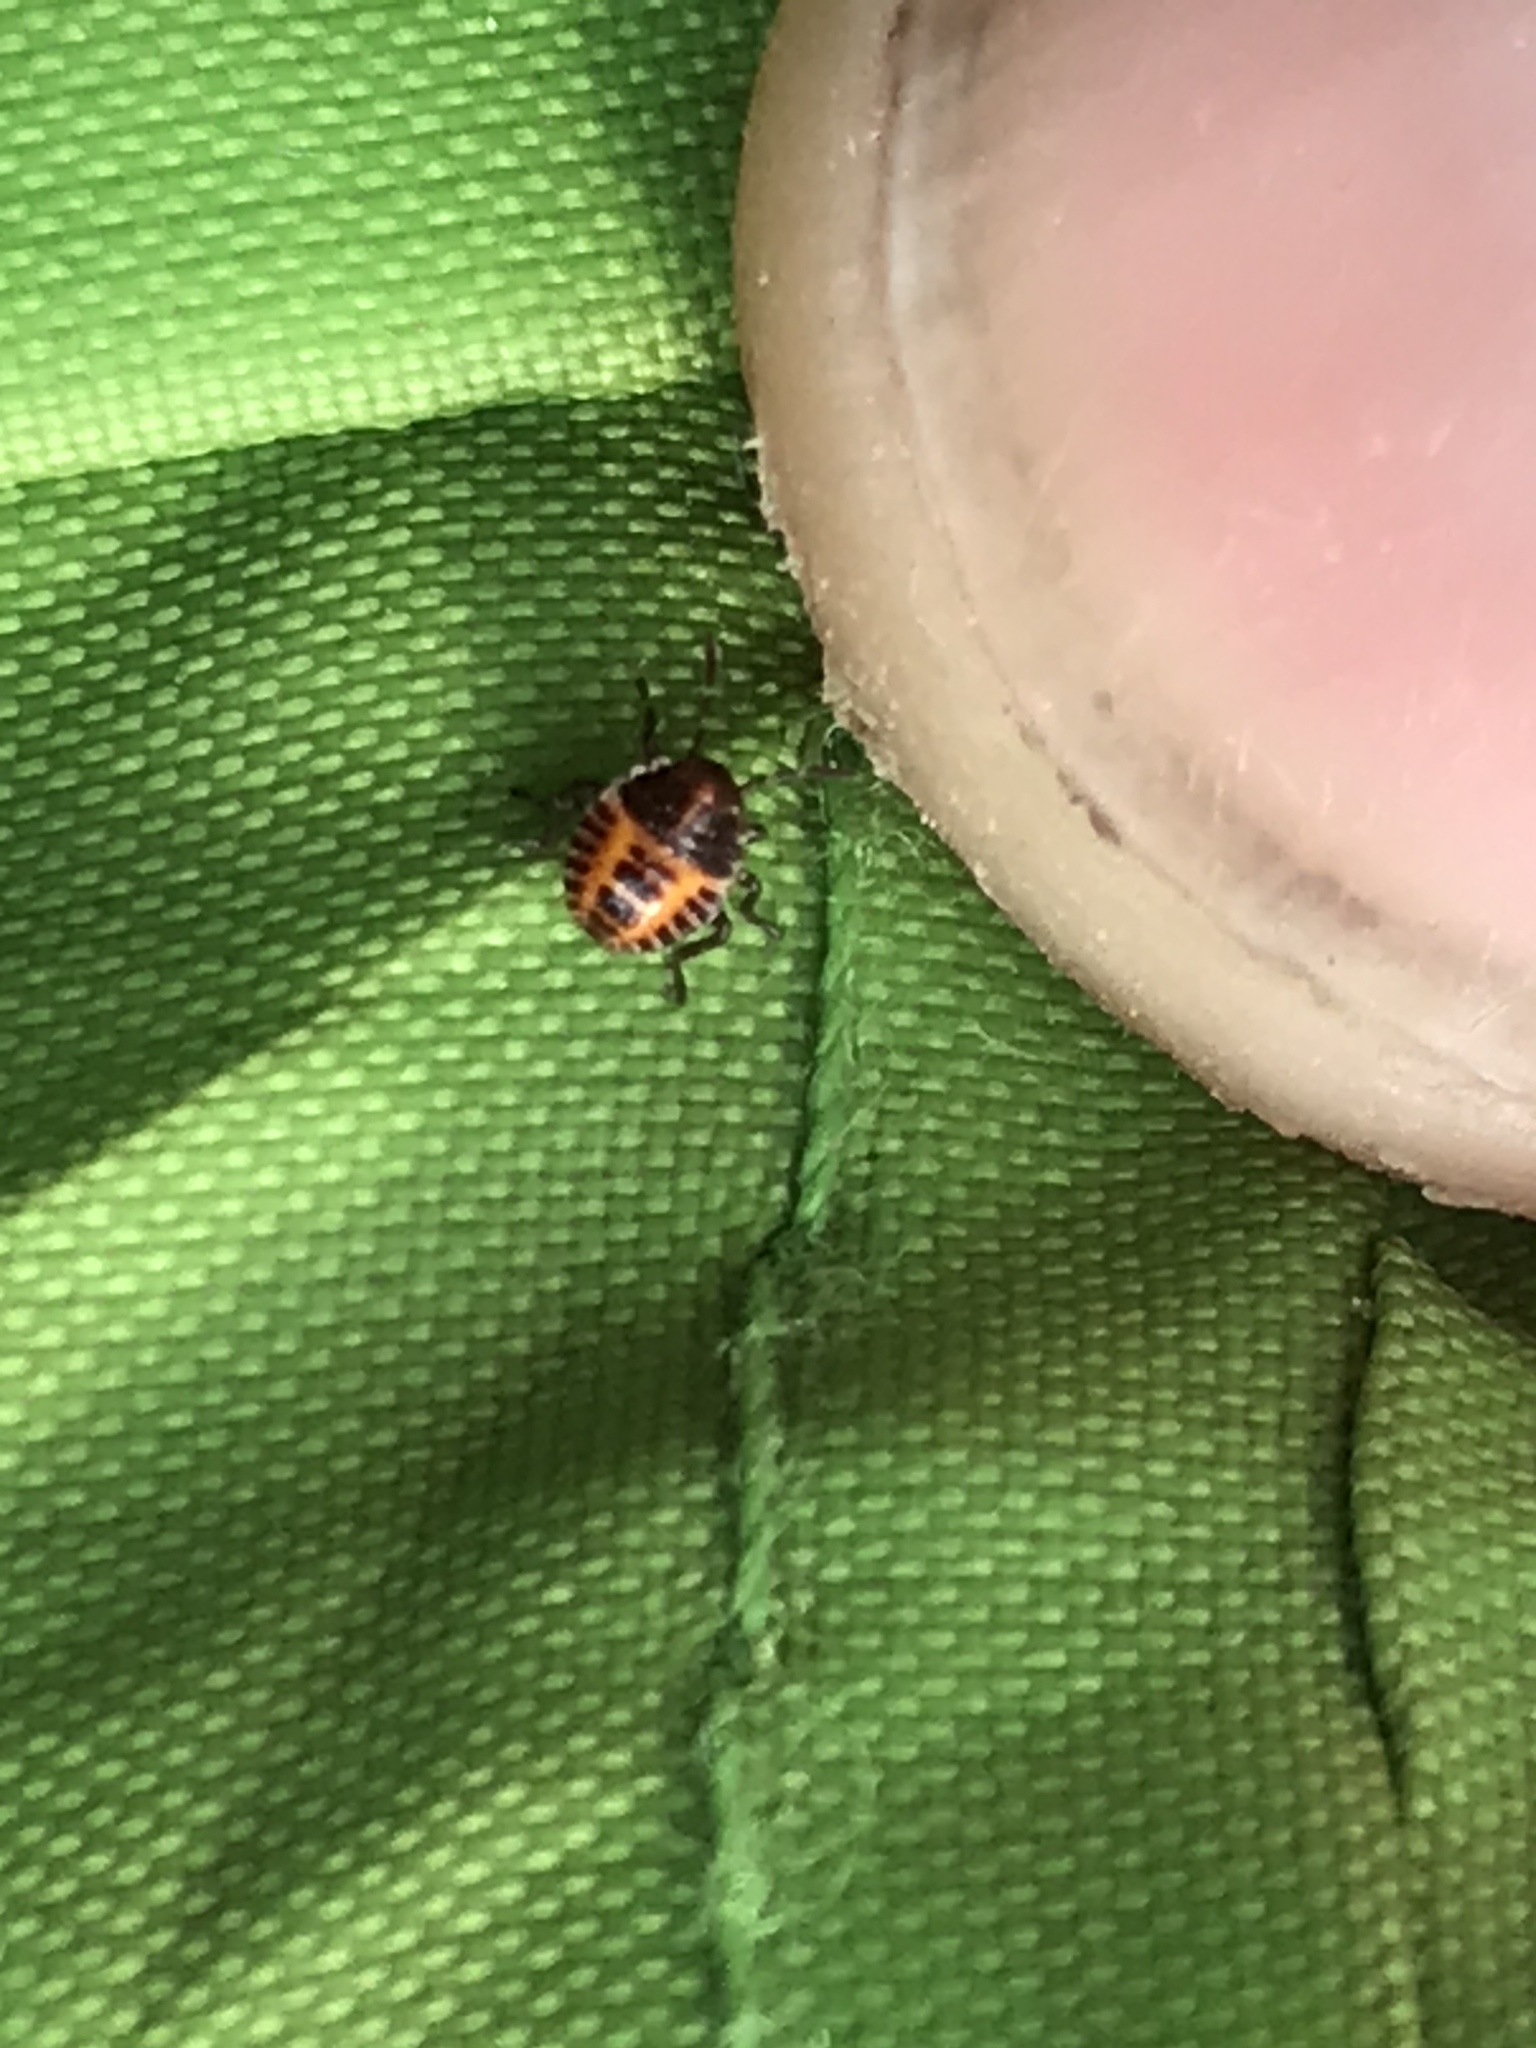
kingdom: Animalia
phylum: Arthropoda
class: Insecta
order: Hemiptera
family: Pentatomidae
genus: Halyomorpha
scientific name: Halyomorpha halys
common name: Brown marmorated stink bug
